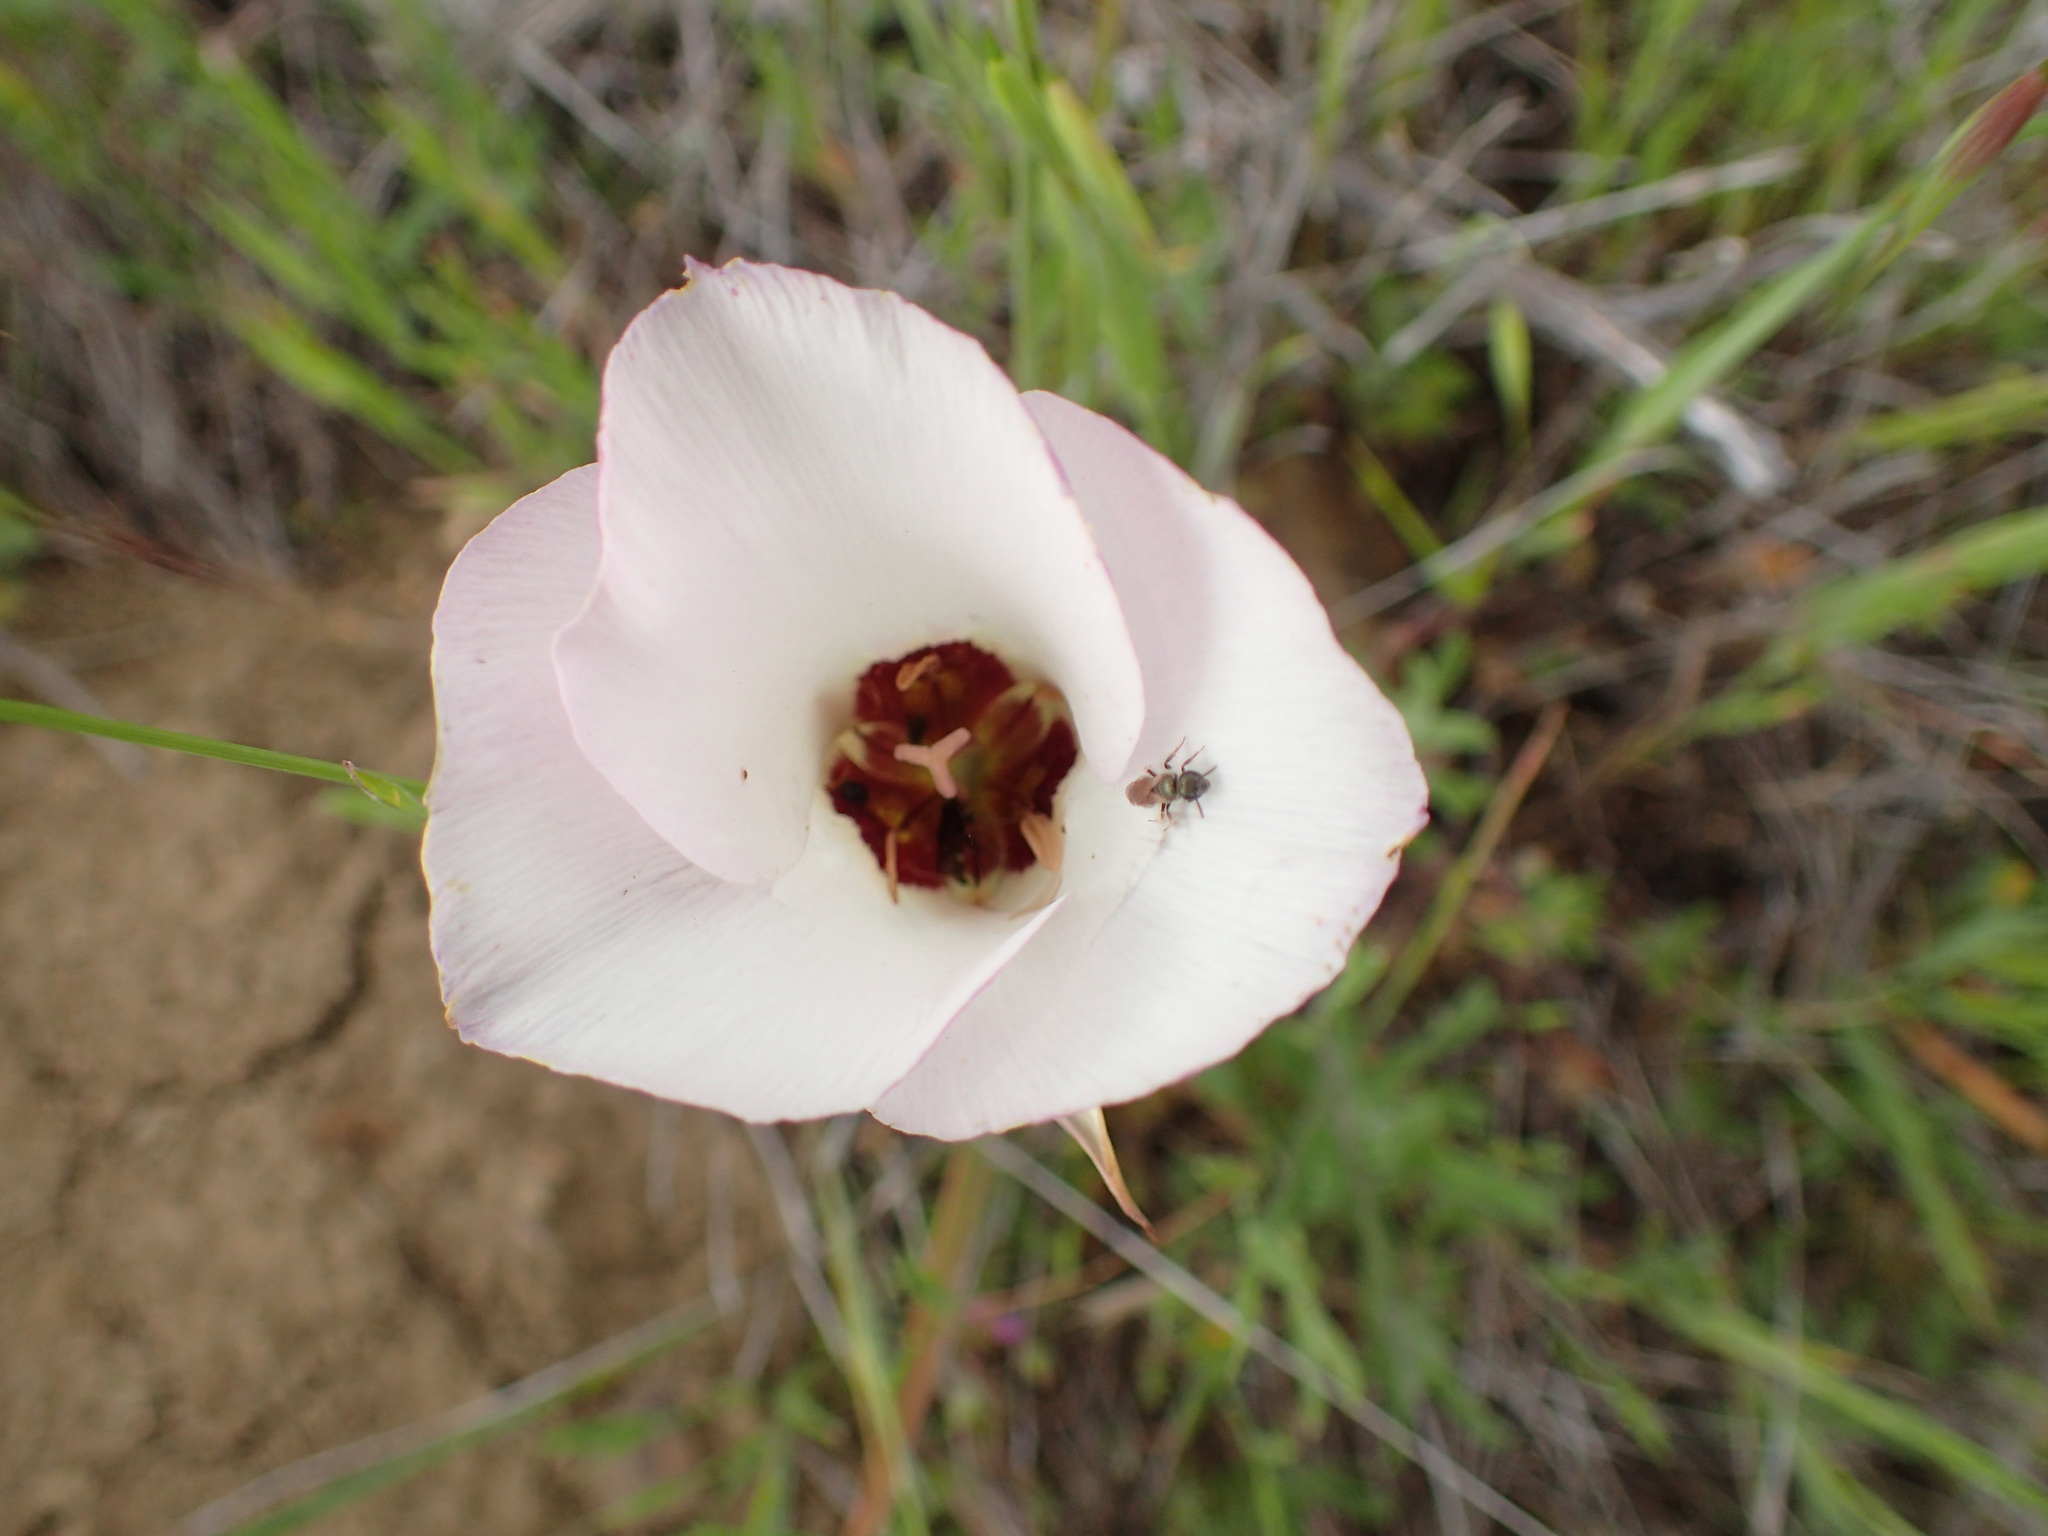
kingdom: Plantae
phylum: Tracheophyta
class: Liliopsida
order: Liliales
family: Liliaceae
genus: Calochortus
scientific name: Calochortus catalinae
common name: Catalina mariposa-lily
